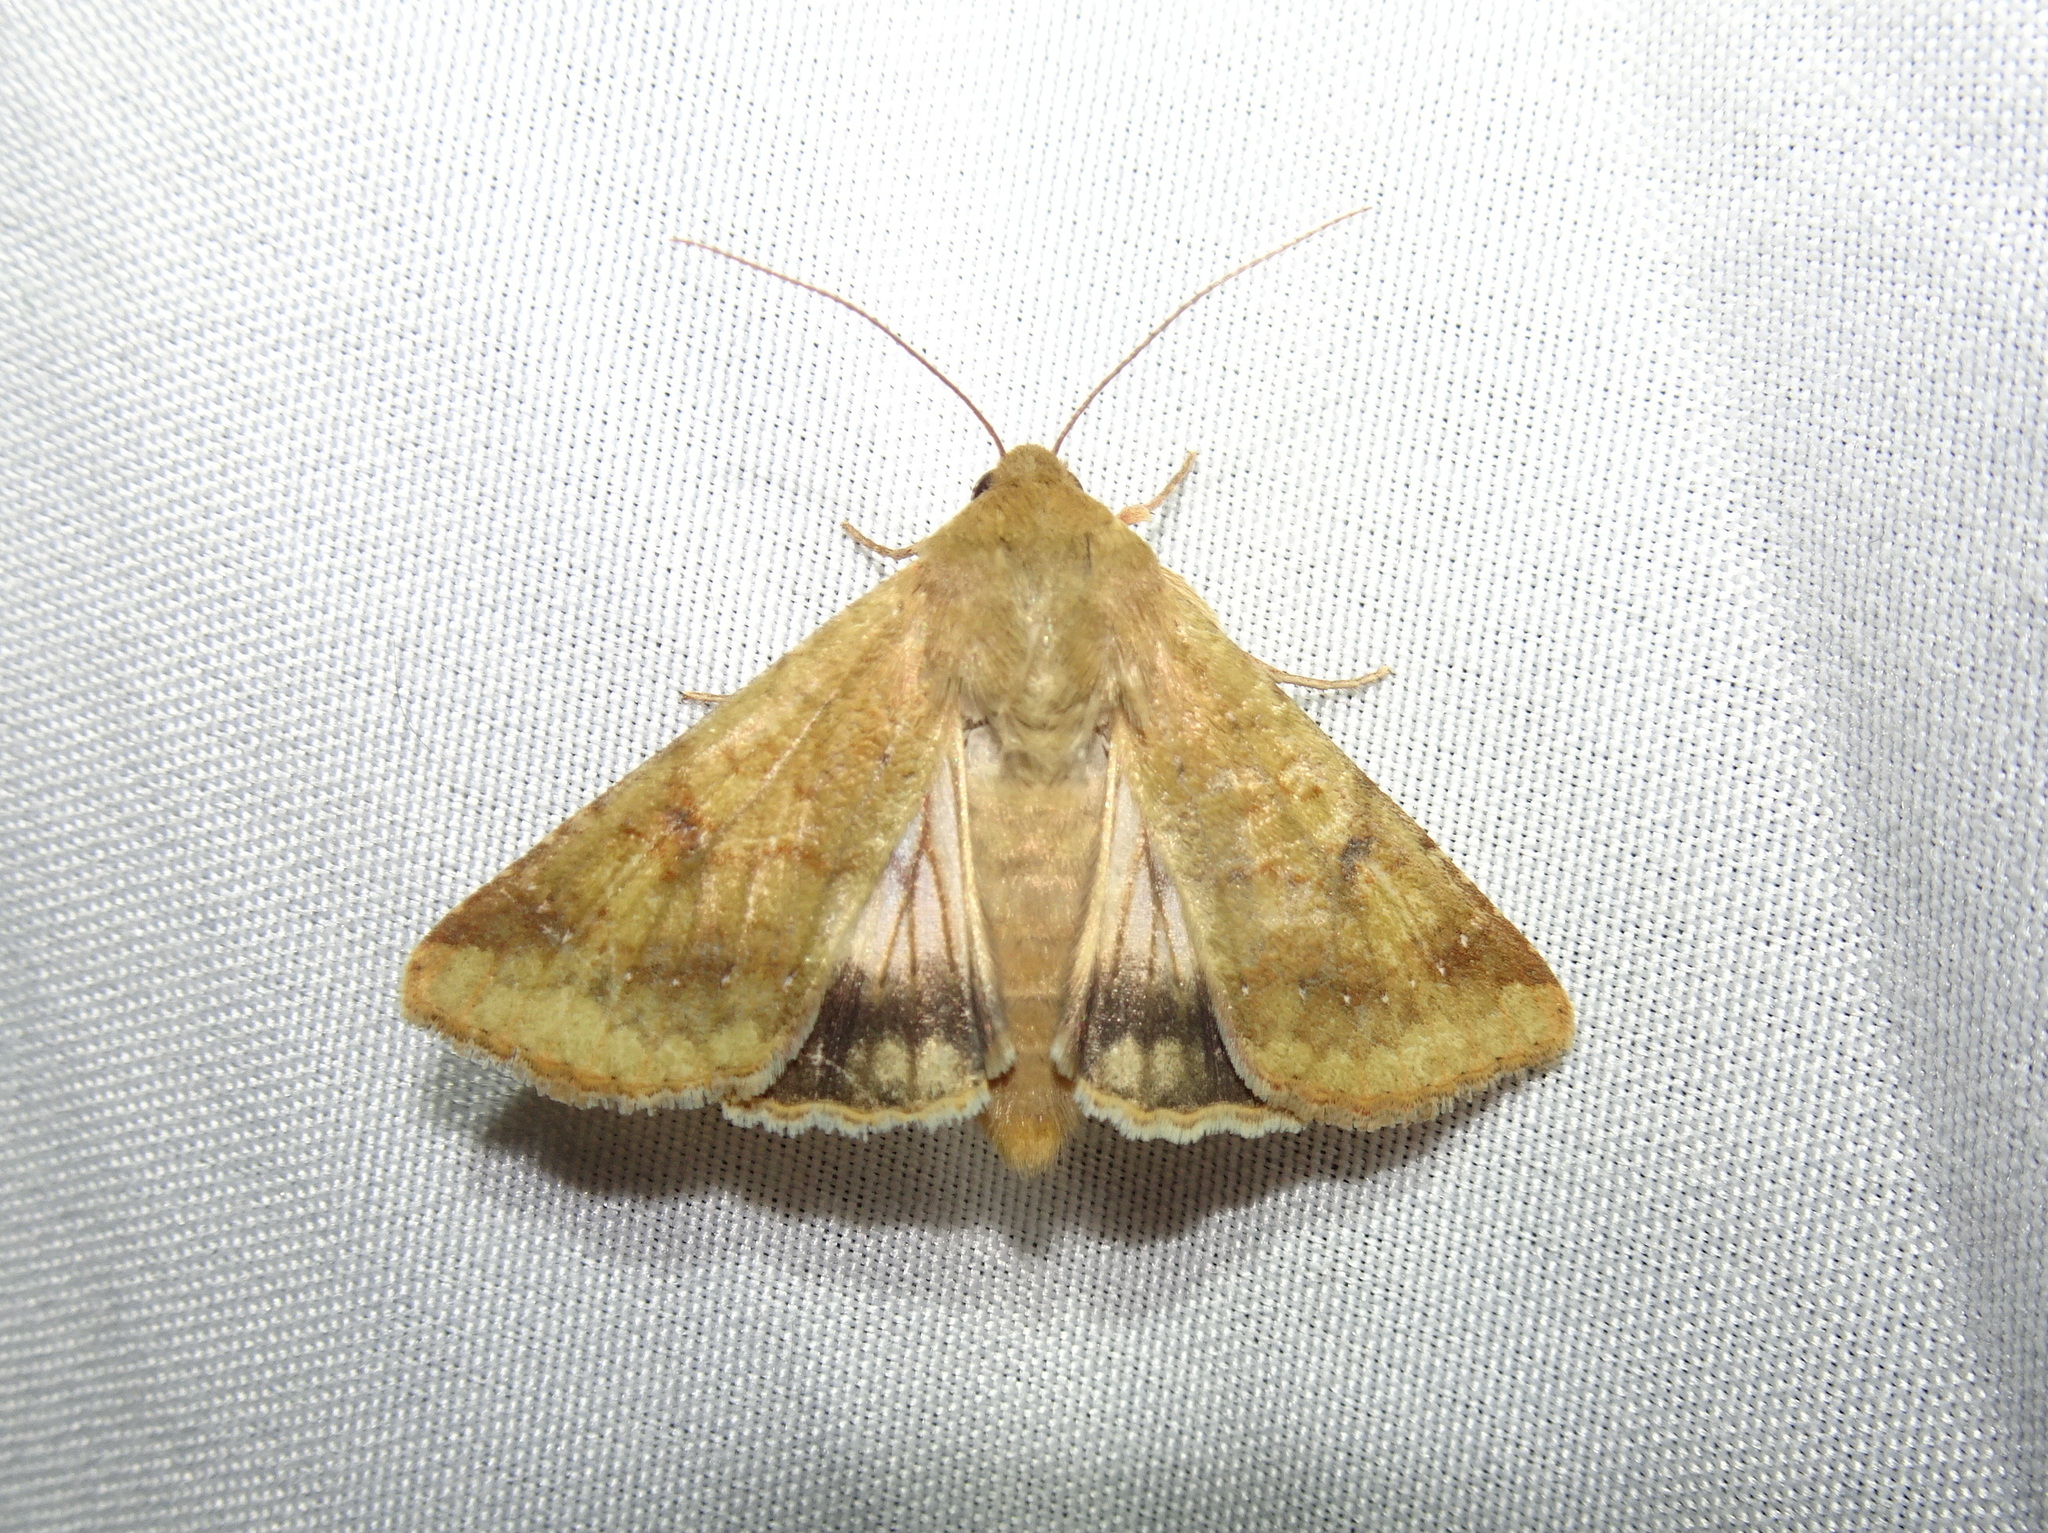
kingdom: Animalia
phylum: Arthropoda
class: Insecta
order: Lepidoptera
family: Noctuidae
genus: Helicoverpa
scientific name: Helicoverpa zea
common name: Bollworm
